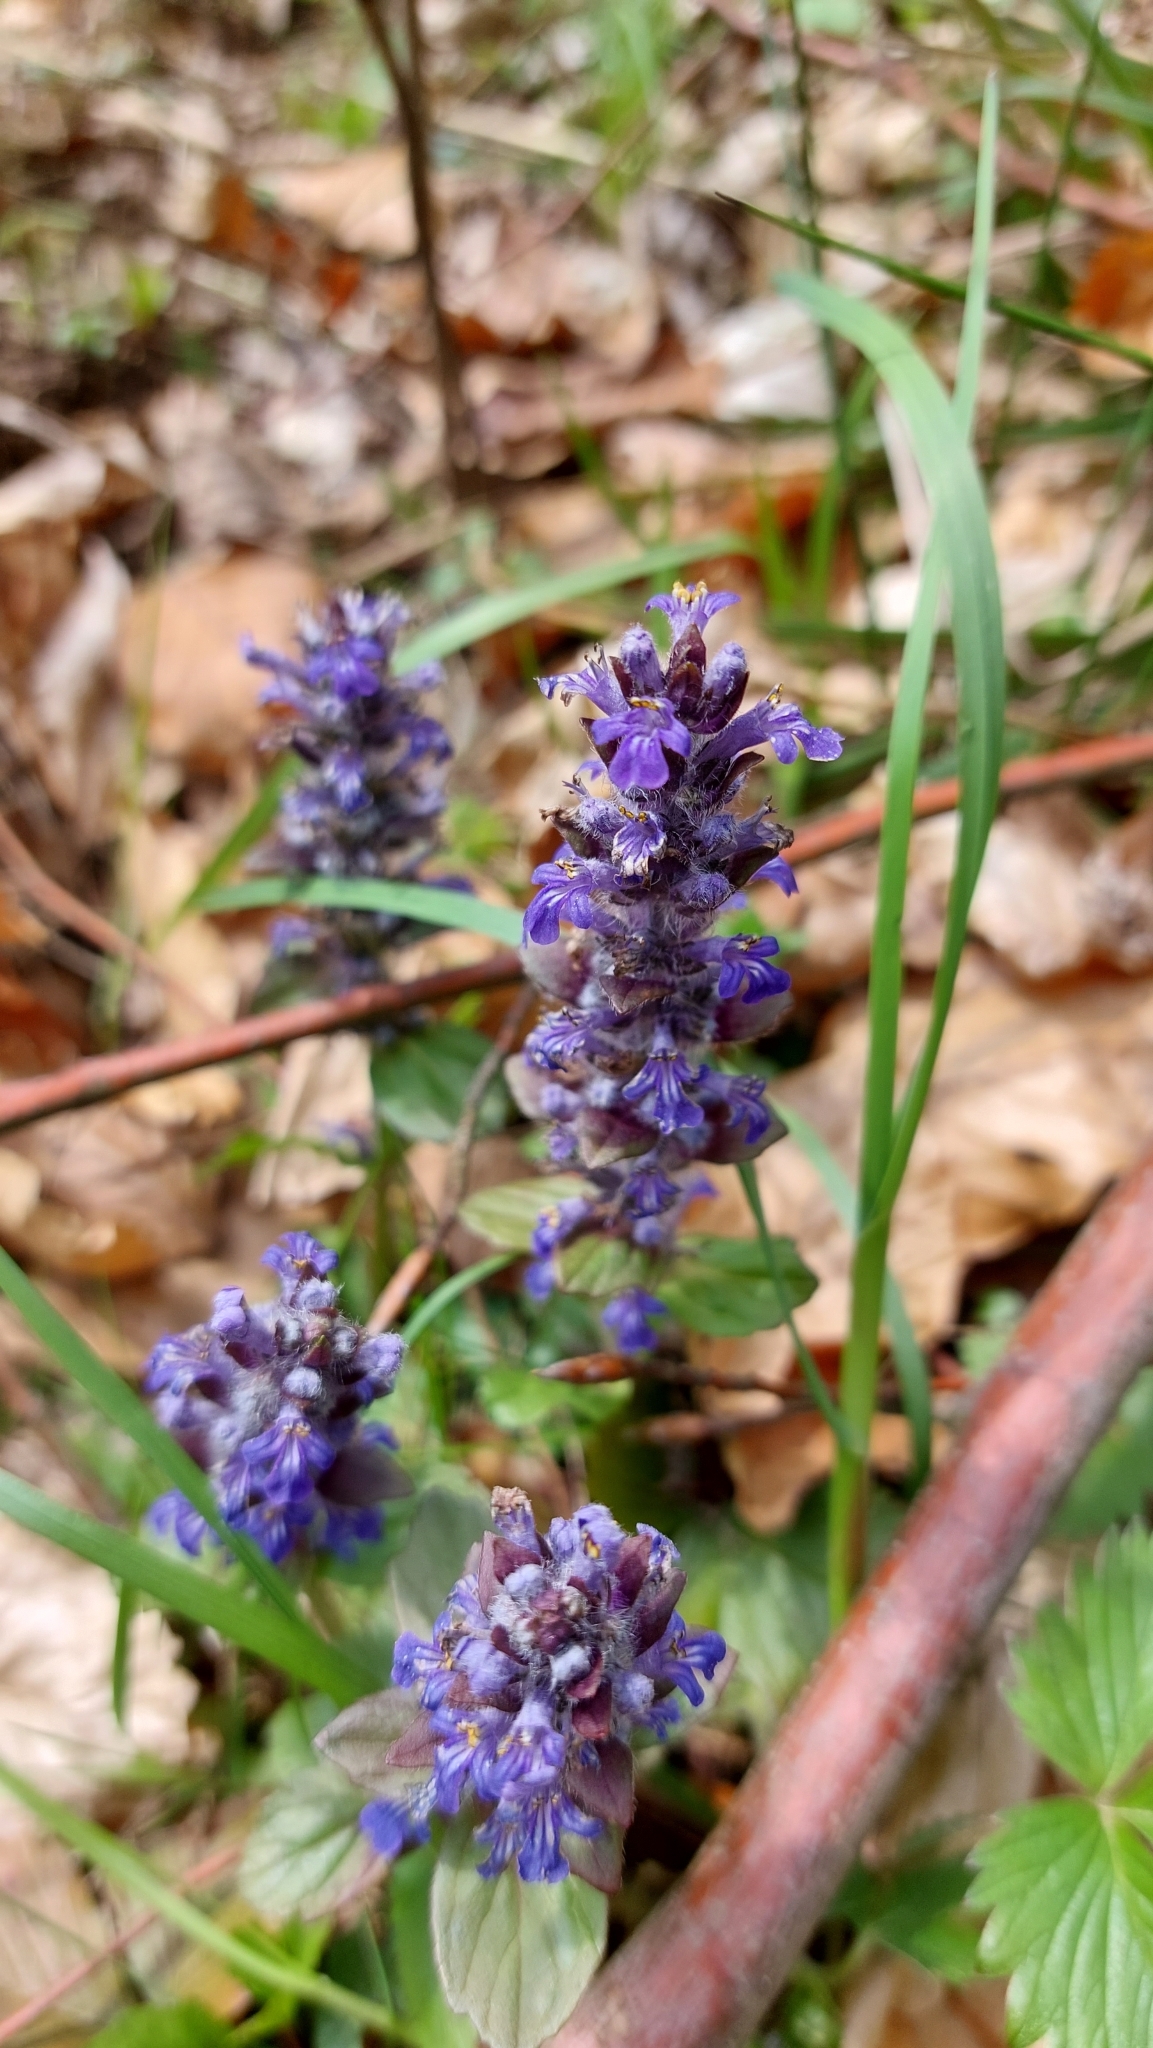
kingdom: Plantae
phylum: Tracheophyta
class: Magnoliopsida
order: Lamiales
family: Lamiaceae
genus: Ajuga
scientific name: Ajuga reptans
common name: Bugle
